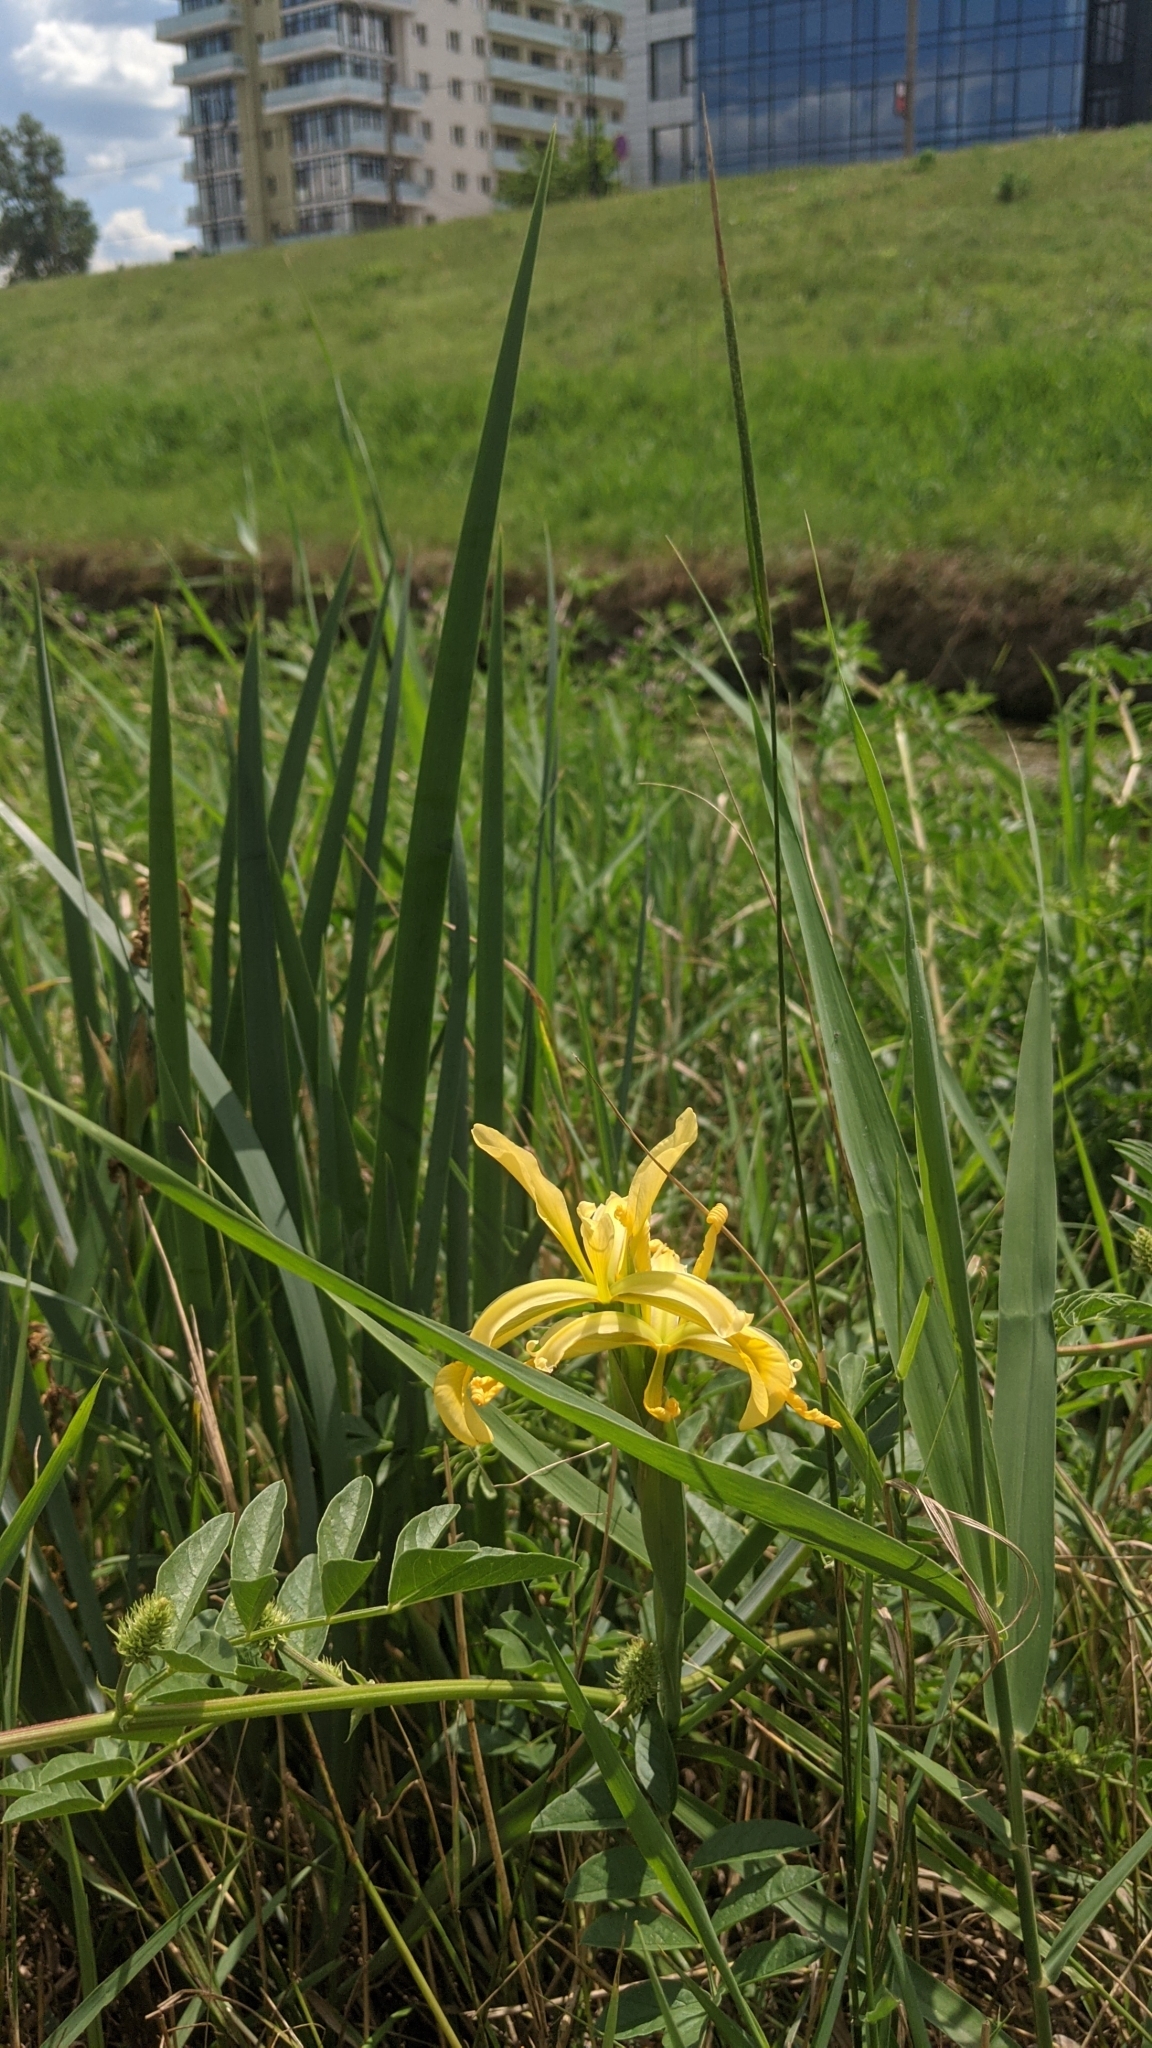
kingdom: Plantae
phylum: Tracheophyta
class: Liliopsida
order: Asparagales
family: Iridaceae
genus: Iris
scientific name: Iris halophila
